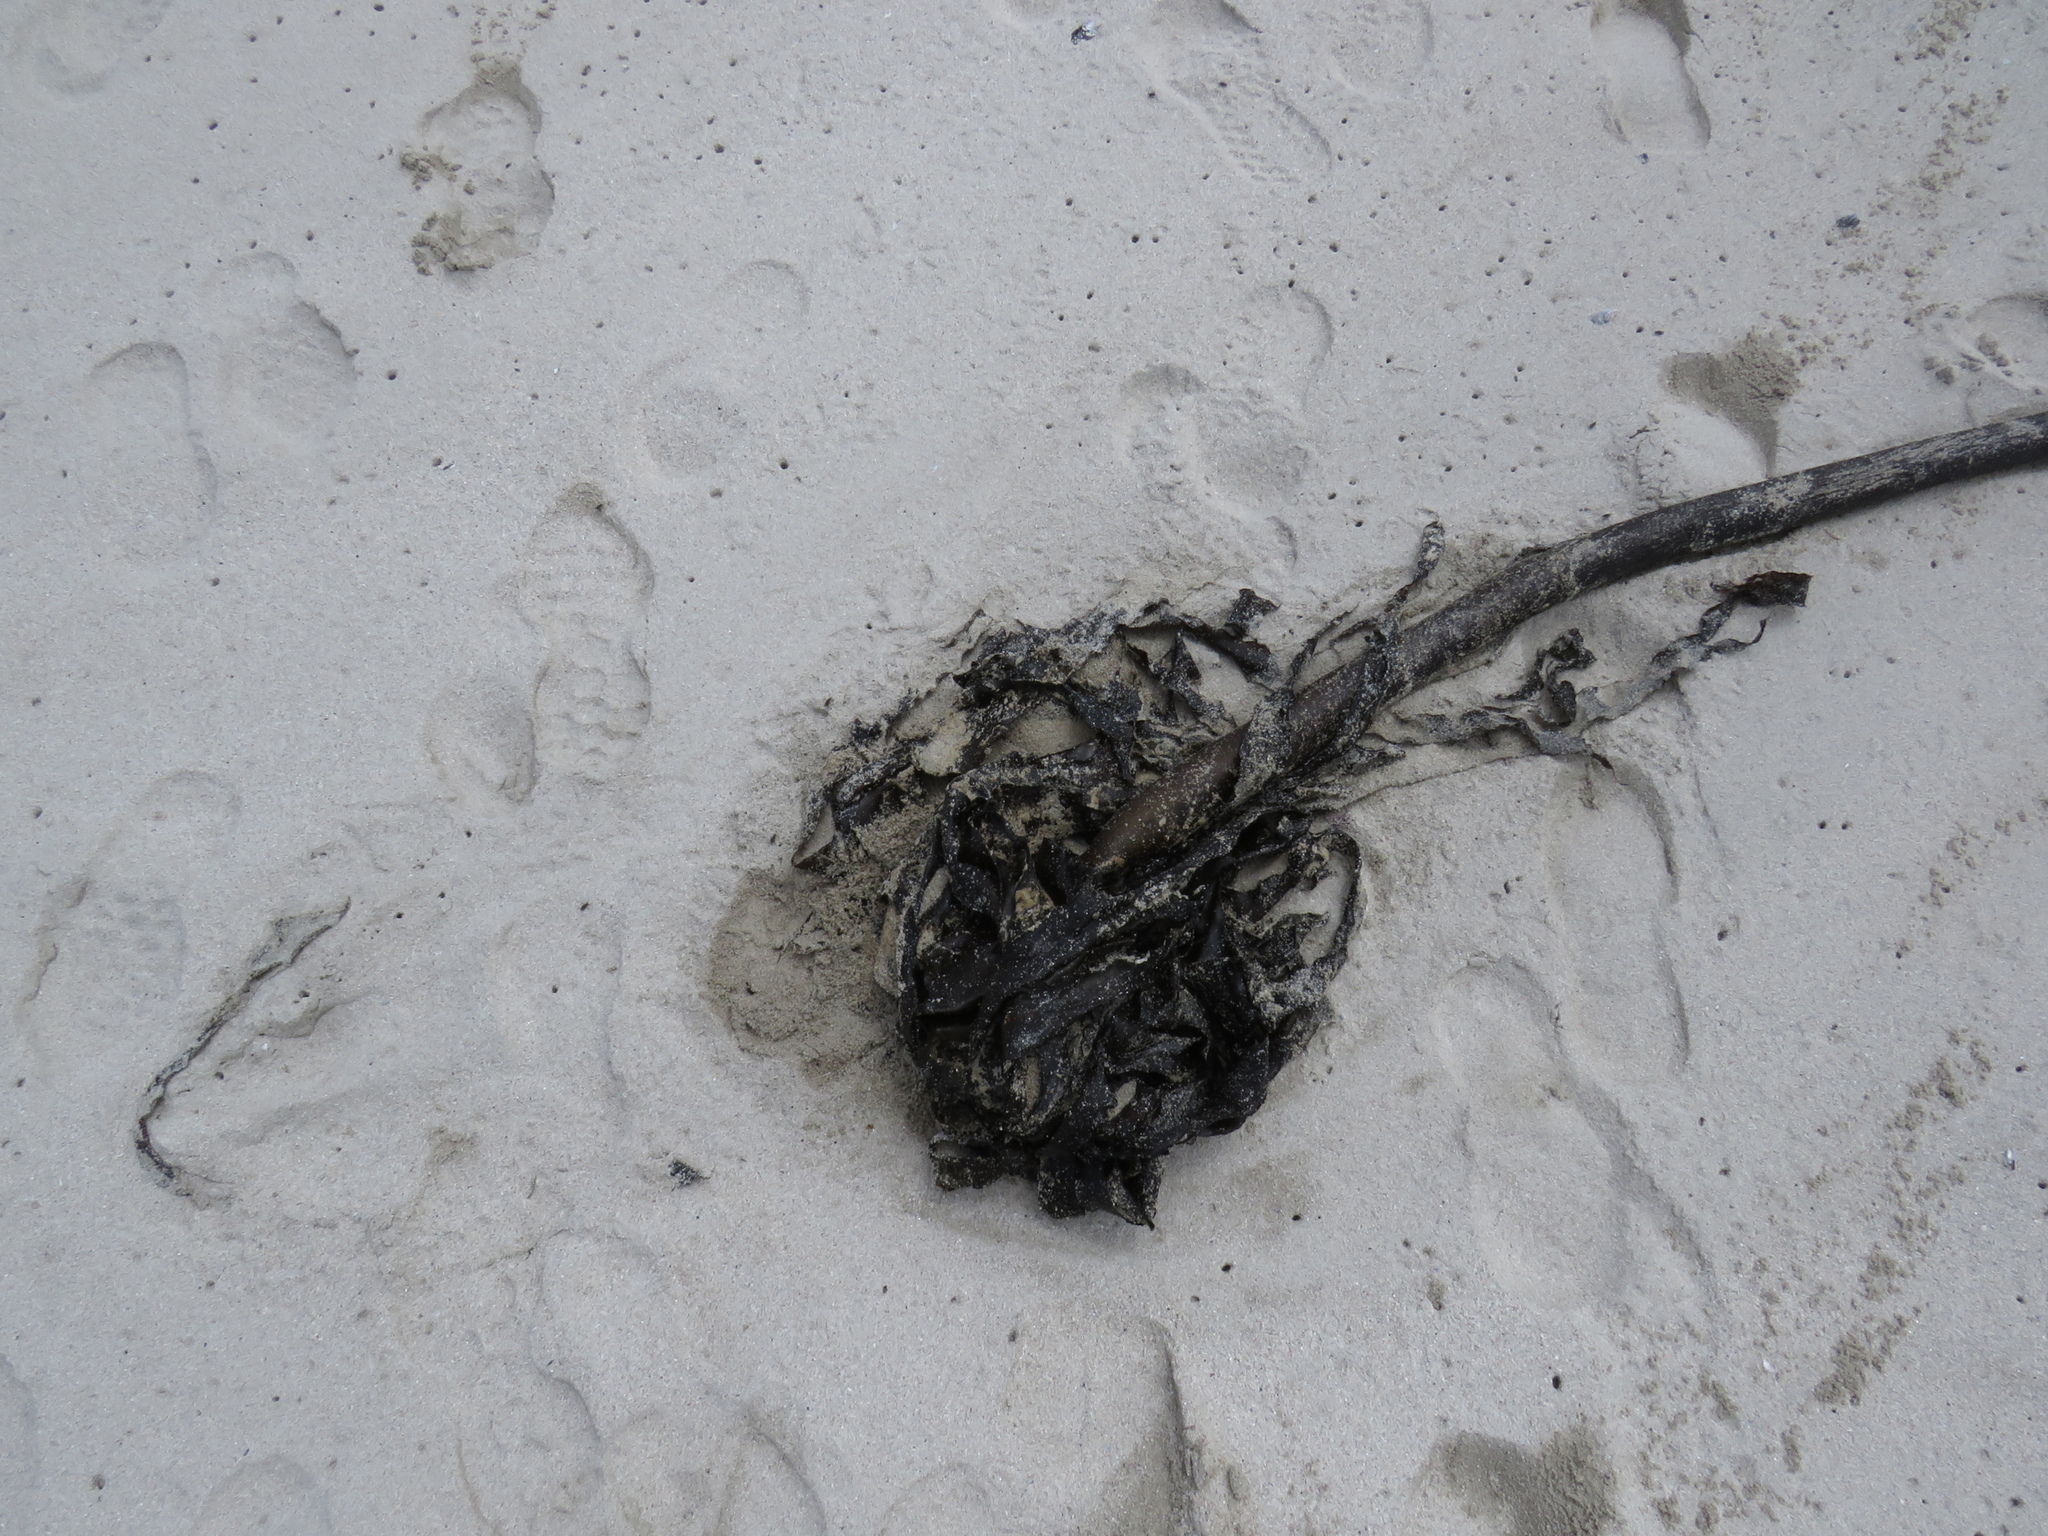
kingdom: Animalia
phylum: Arthropoda
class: Malacostraca
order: Amphipoda
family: Talitridae
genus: Africorchestia
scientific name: Africorchestia quadrispinosa
